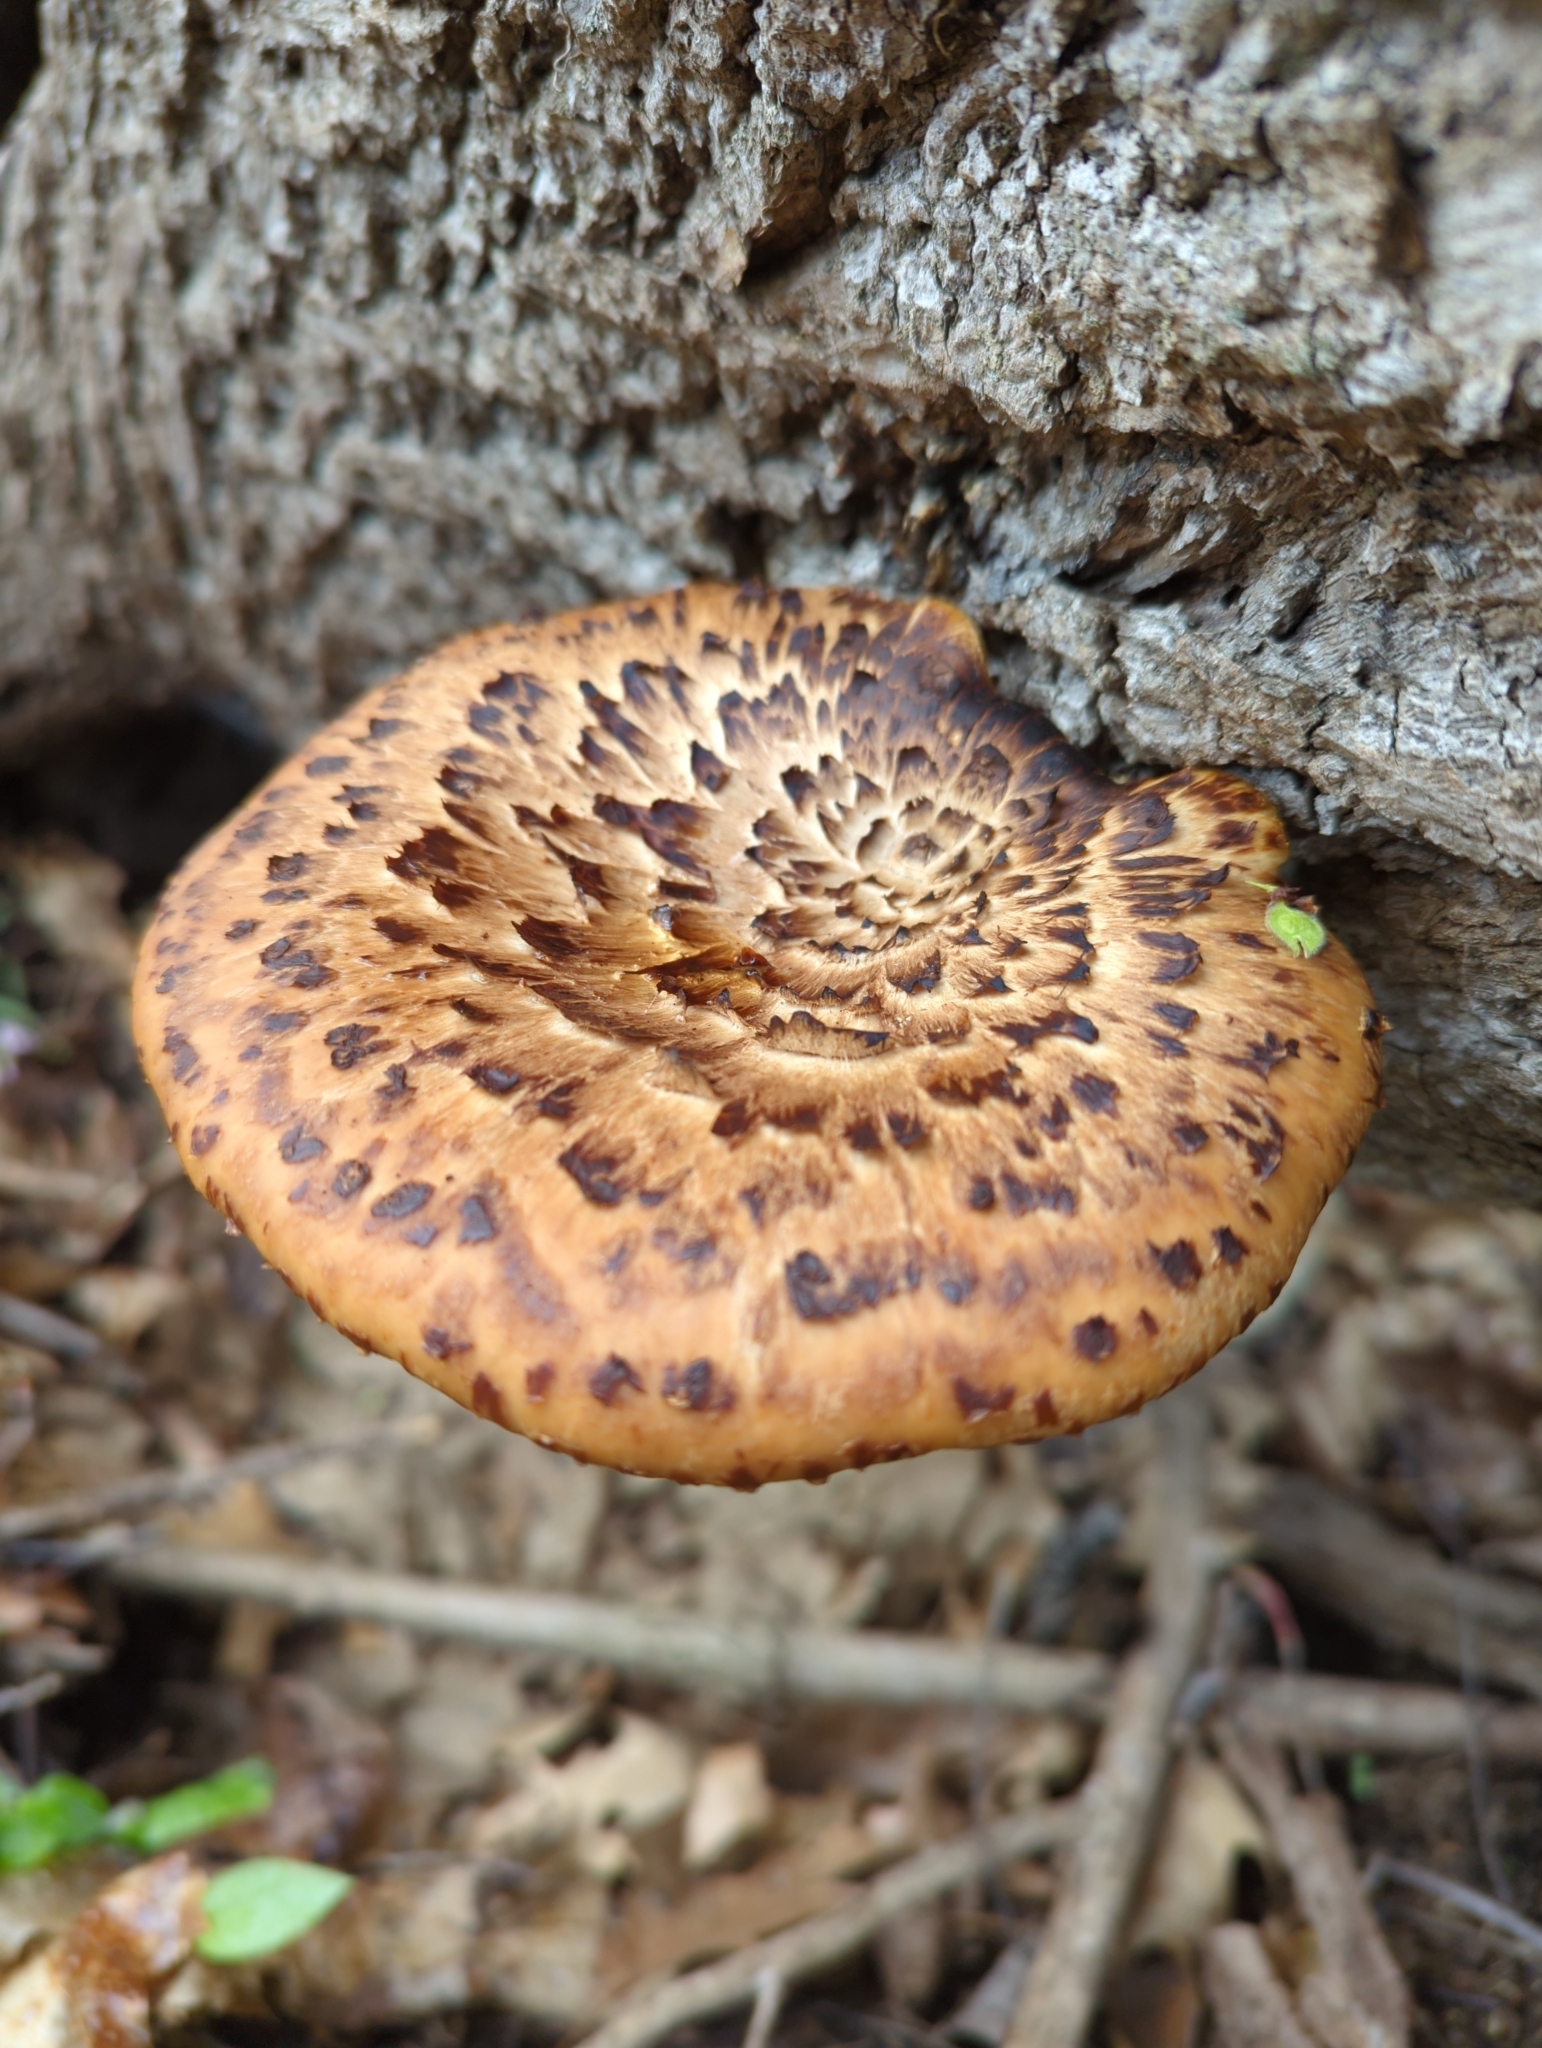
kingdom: Fungi
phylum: Basidiomycota
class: Agaricomycetes
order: Polyporales
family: Polyporaceae
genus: Cerioporus
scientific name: Cerioporus squamosus
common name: Dryad's saddle
